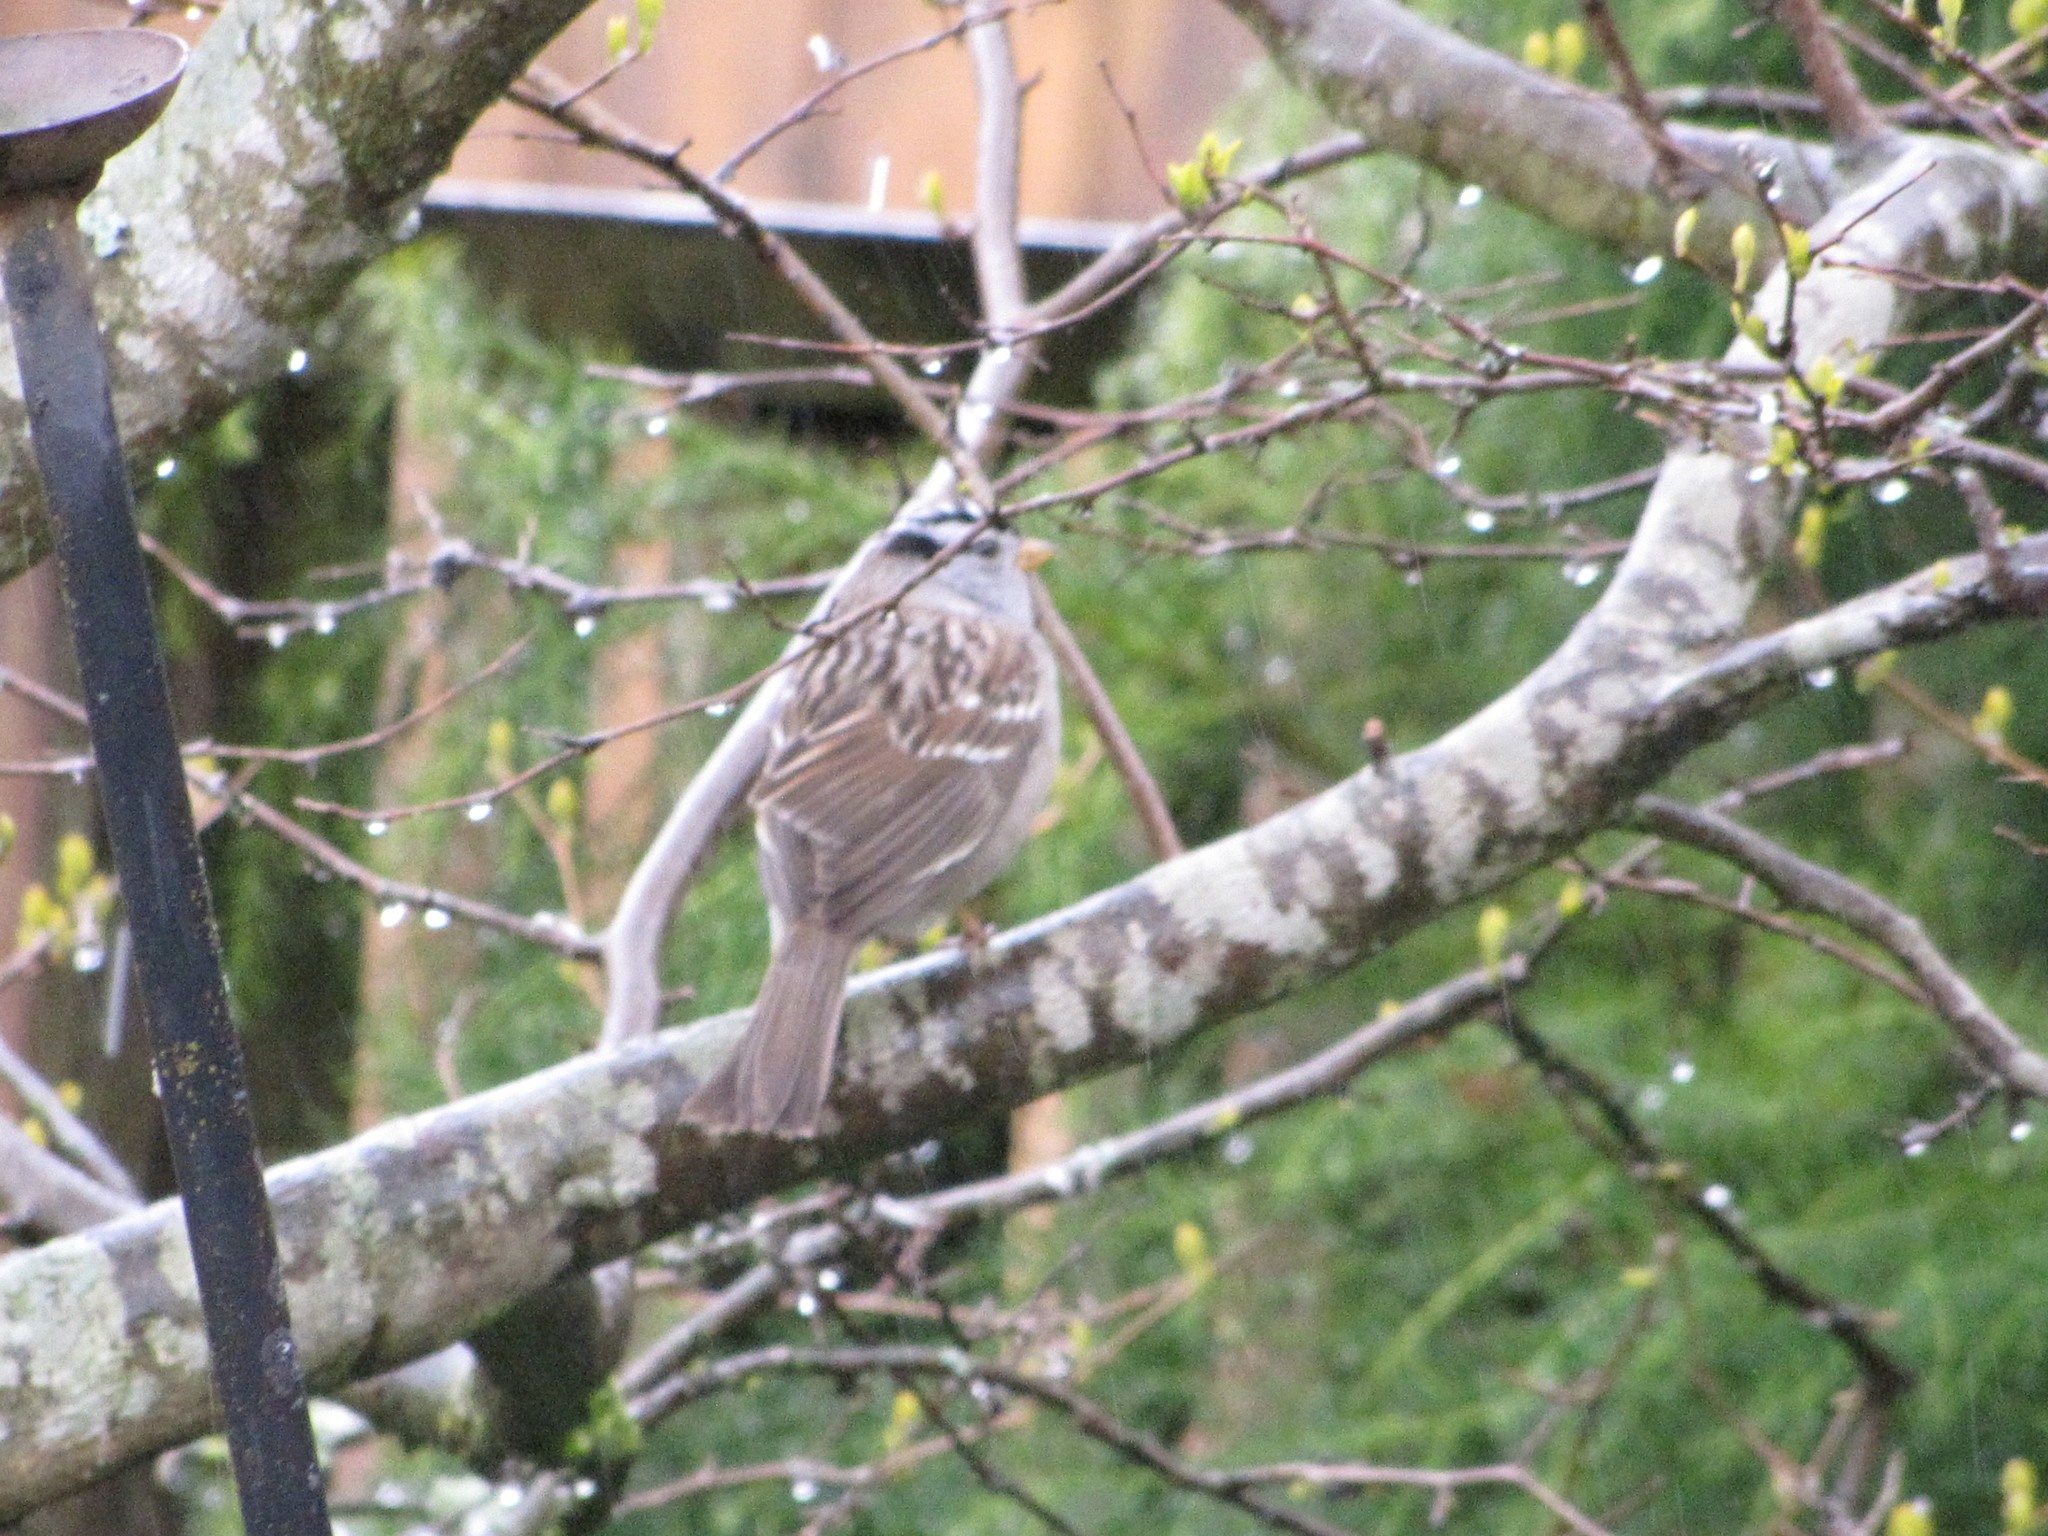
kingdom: Animalia
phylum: Chordata
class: Aves
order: Passeriformes
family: Passerellidae
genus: Zonotrichia
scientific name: Zonotrichia leucophrys
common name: White-crowned sparrow
